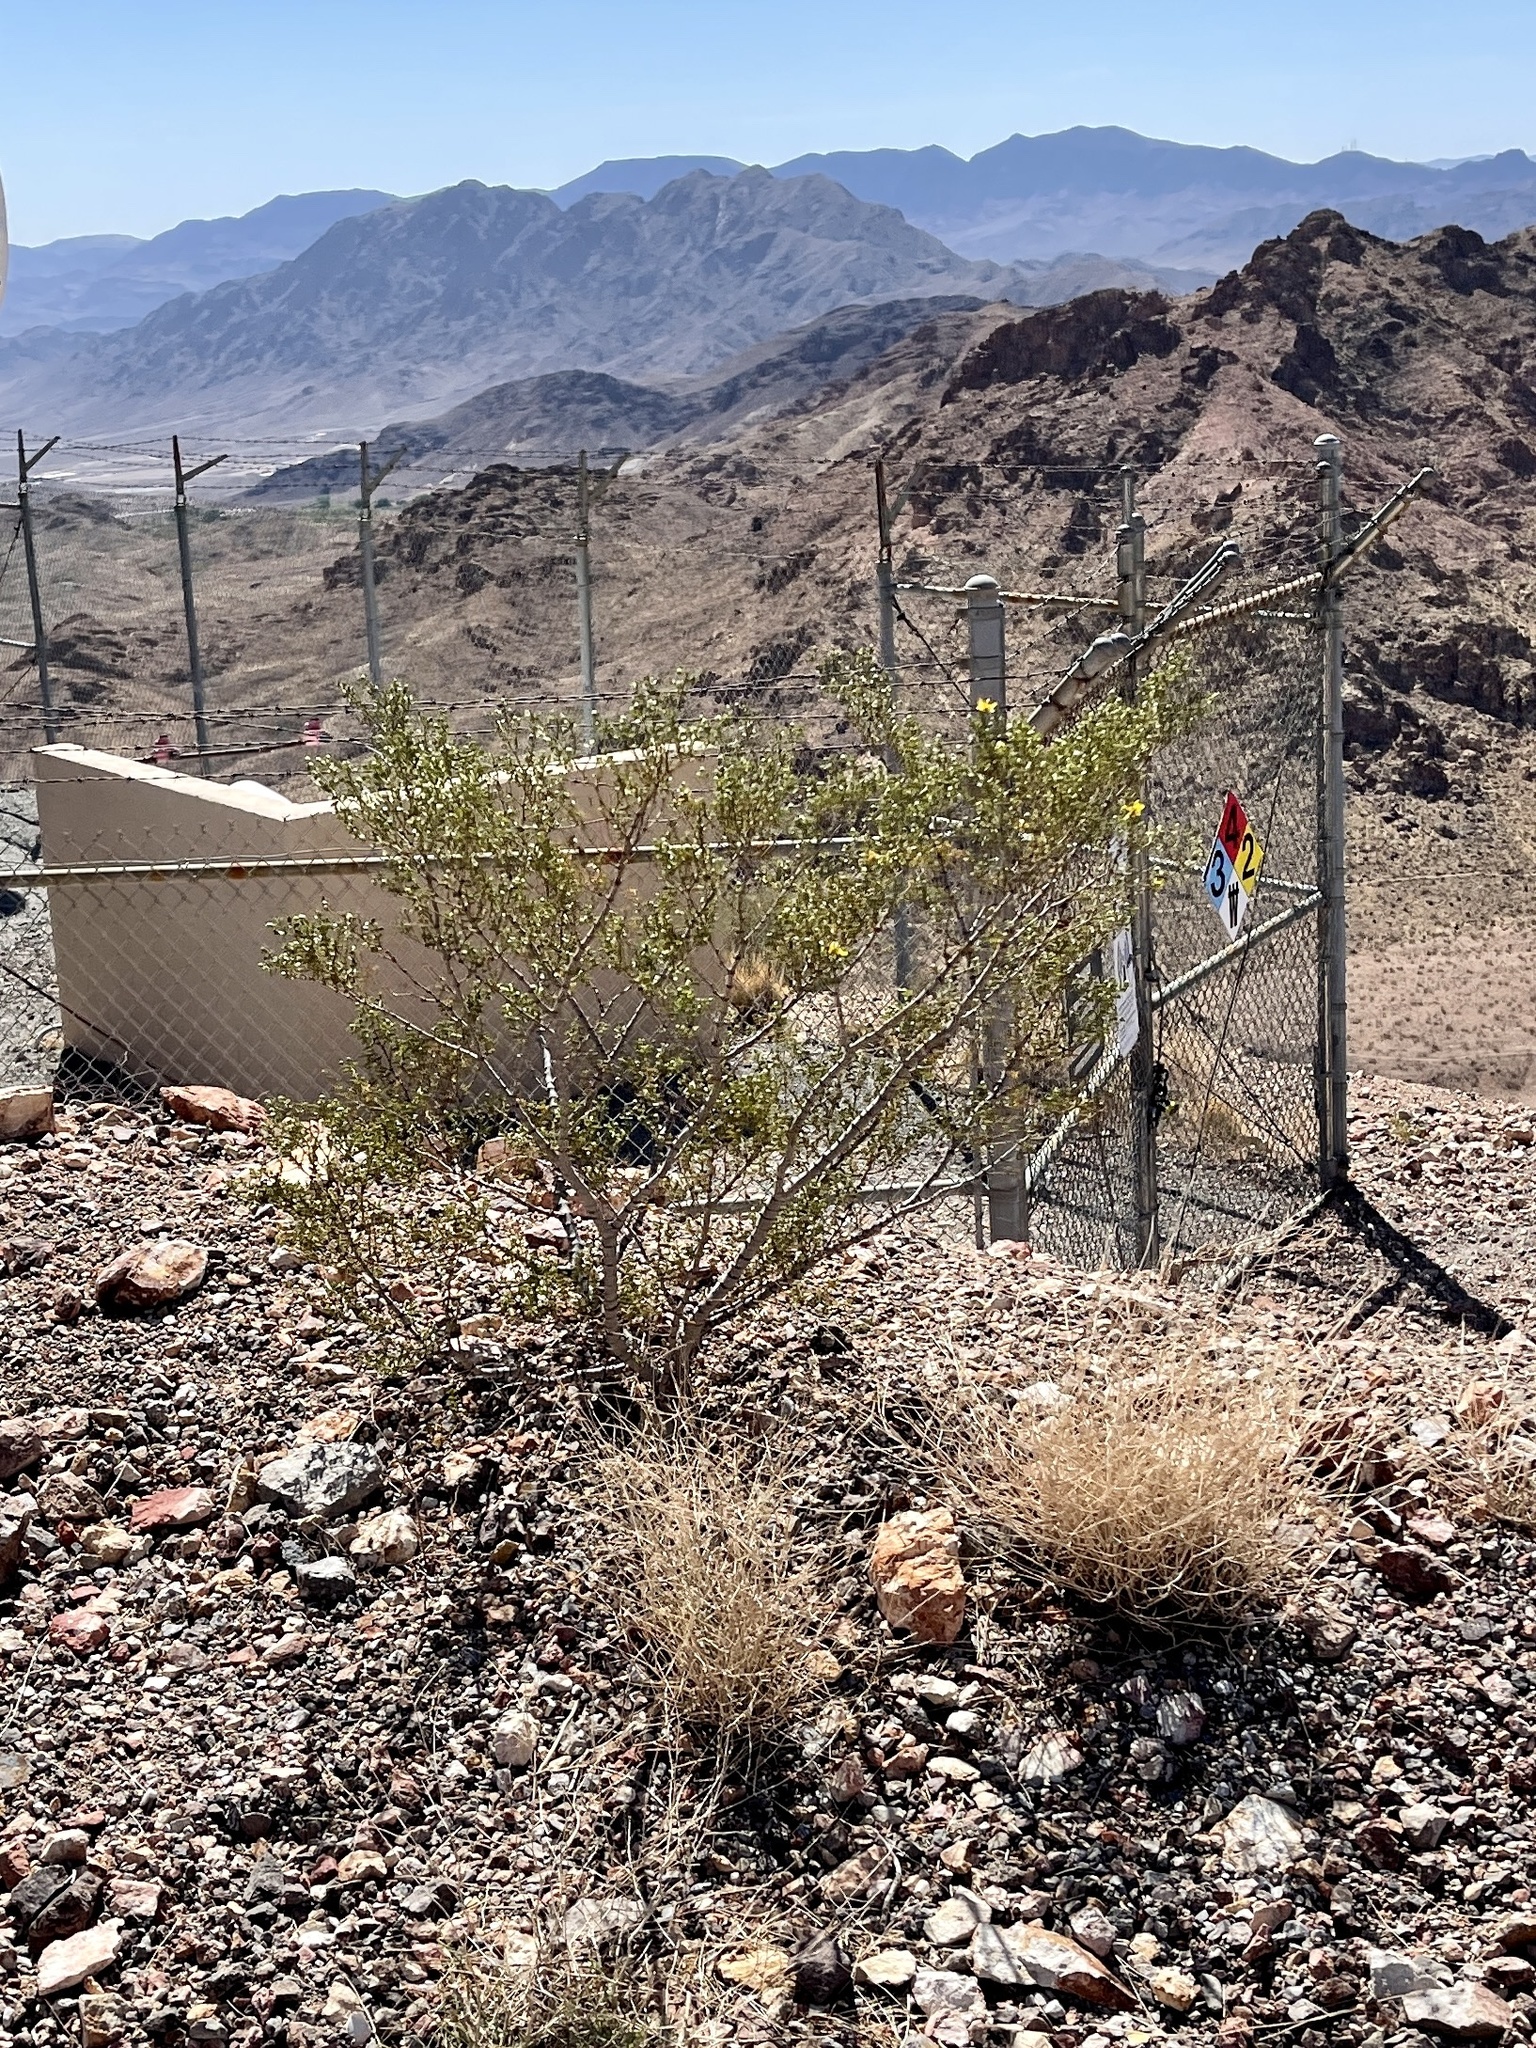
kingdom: Plantae
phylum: Tracheophyta
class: Magnoliopsida
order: Zygophyllales
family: Zygophyllaceae
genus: Larrea
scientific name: Larrea tridentata
